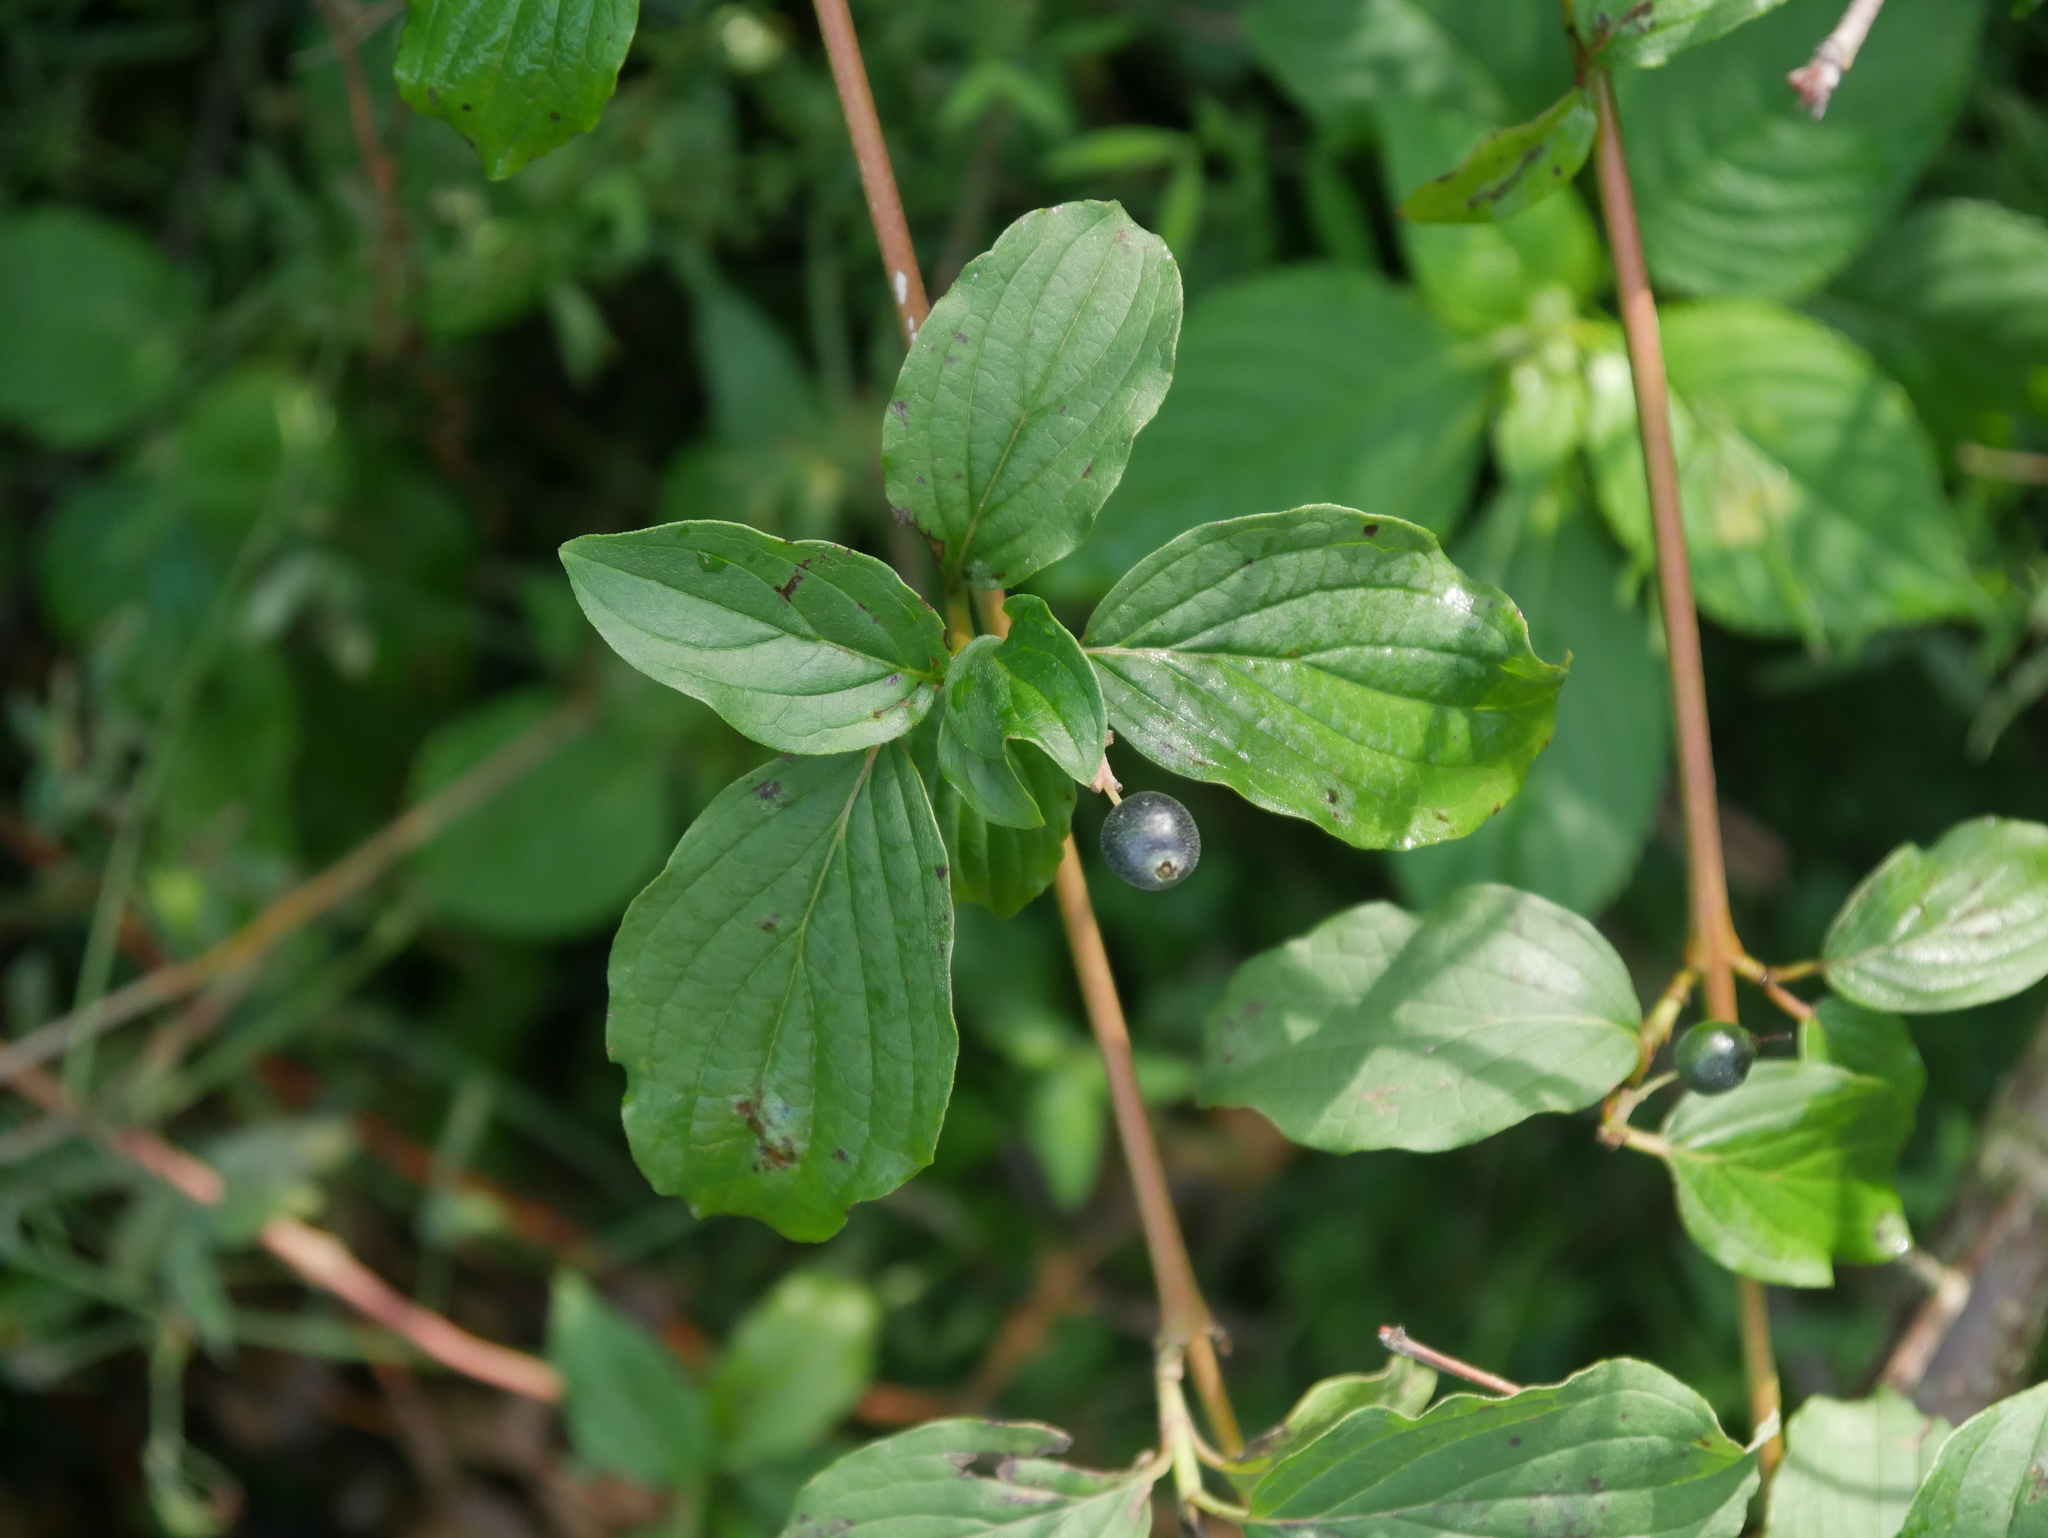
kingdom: Plantae
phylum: Tracheophyta
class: Magnoliopsida
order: Cornales
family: Cornaceae
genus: Cornus
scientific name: Cornus sanguinea
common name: Dogwood
